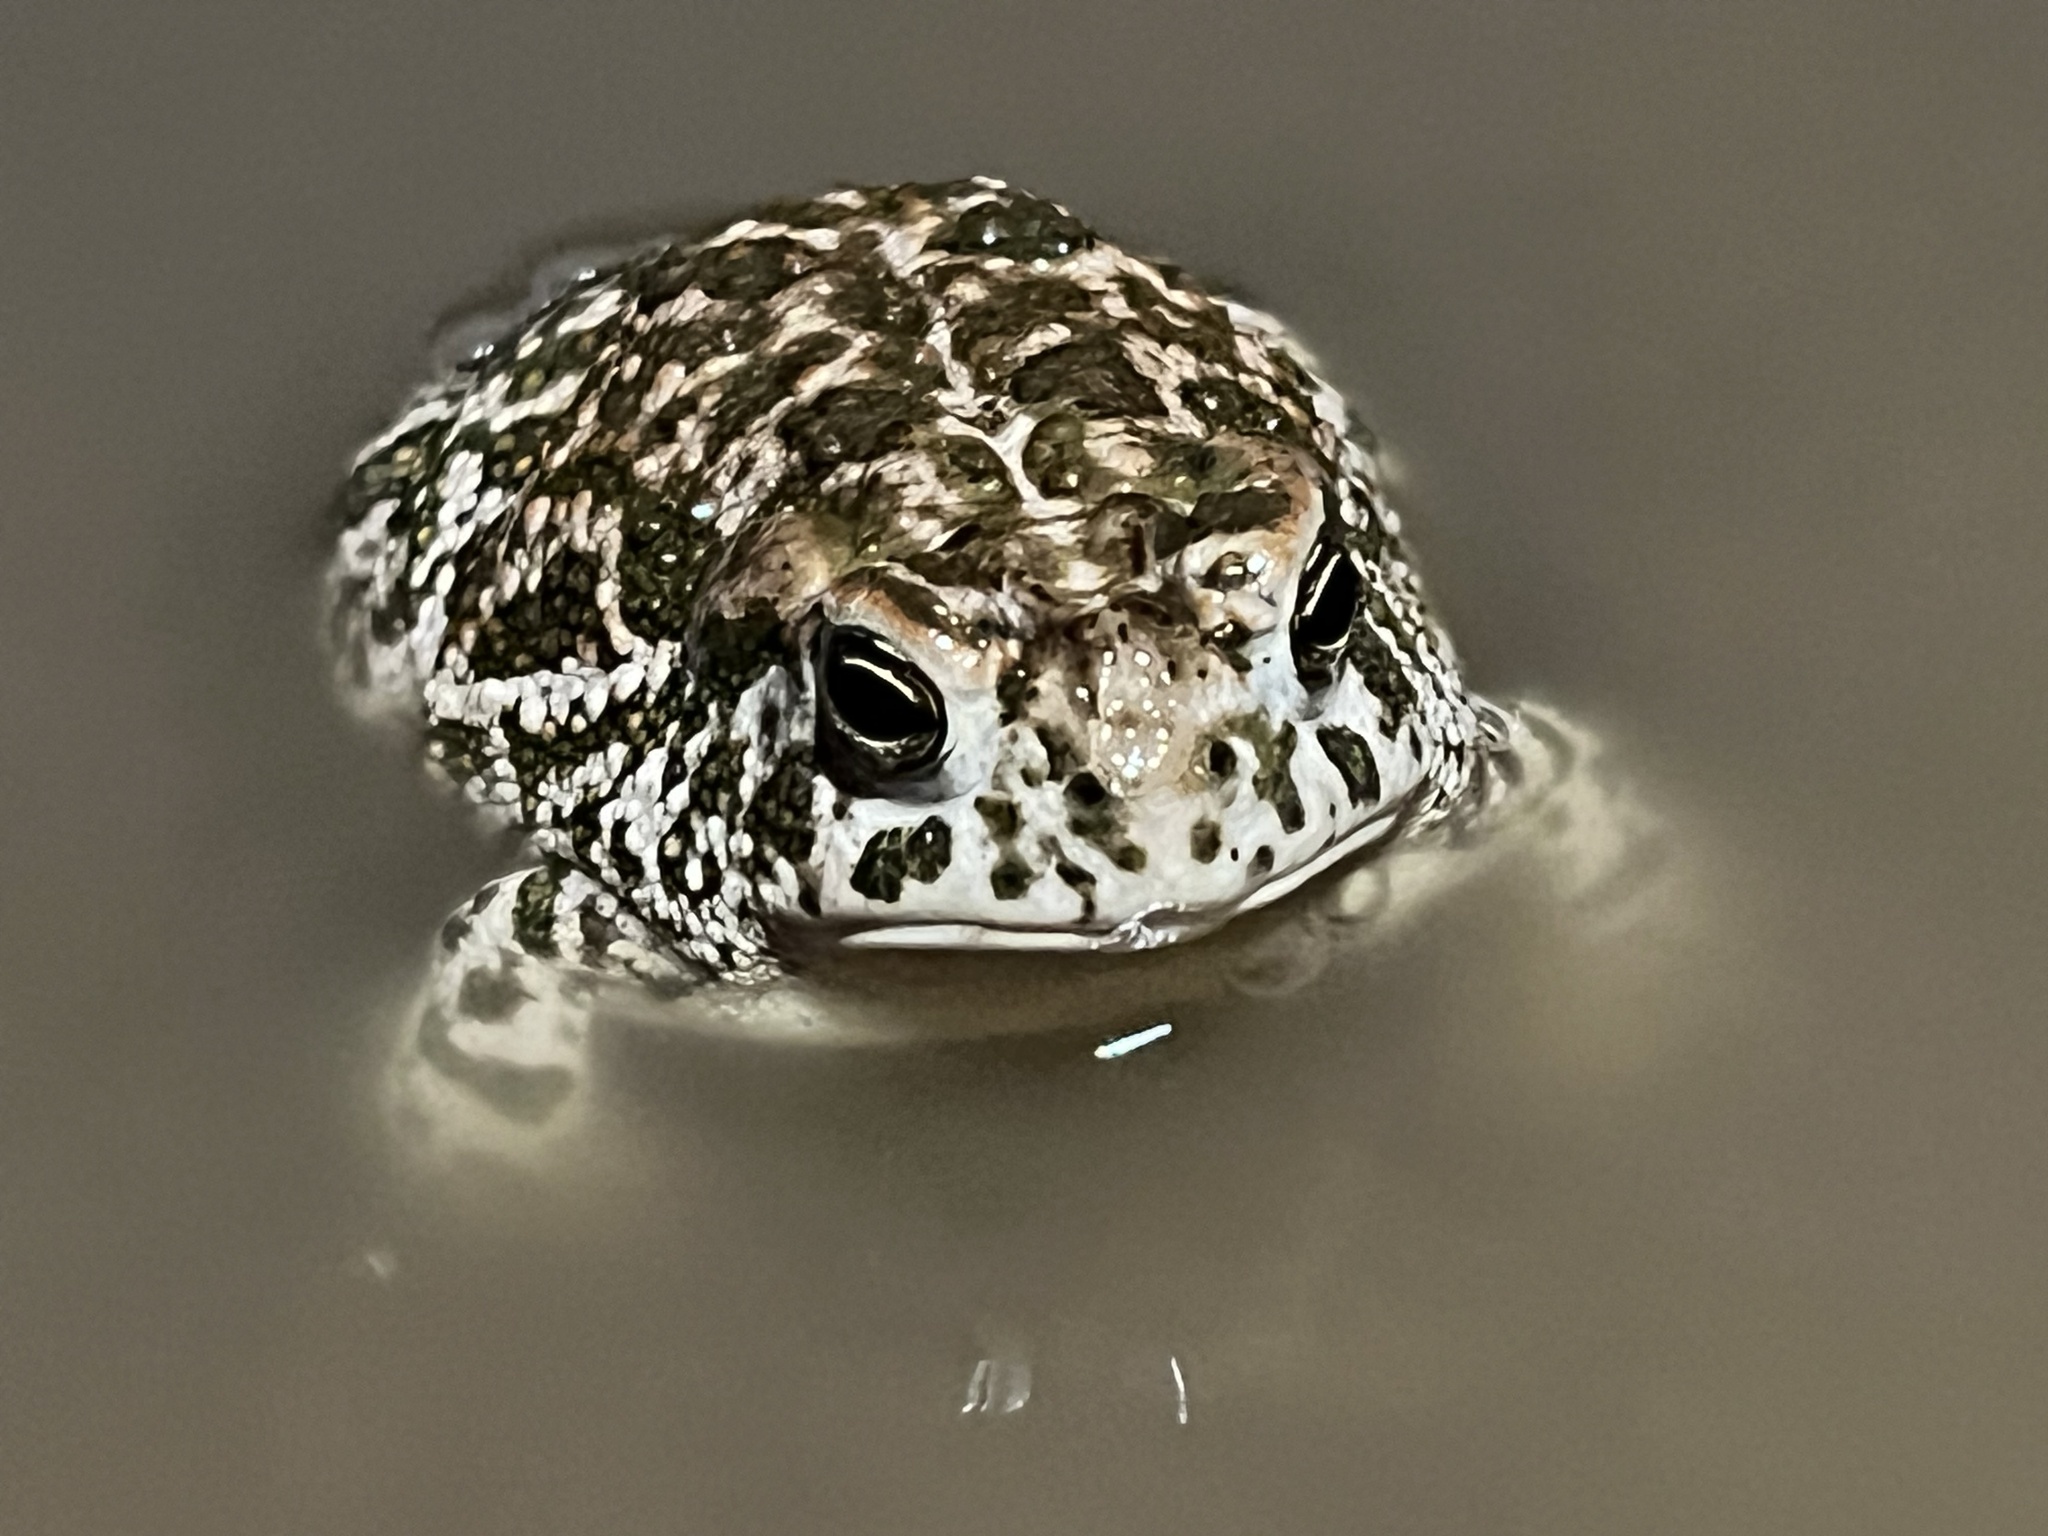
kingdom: Animalia
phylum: Chordata
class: Amphibia
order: Anura
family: Bufonidae
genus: Anaxyrus
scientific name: Anaxyrus cognatus
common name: Great plains toad
